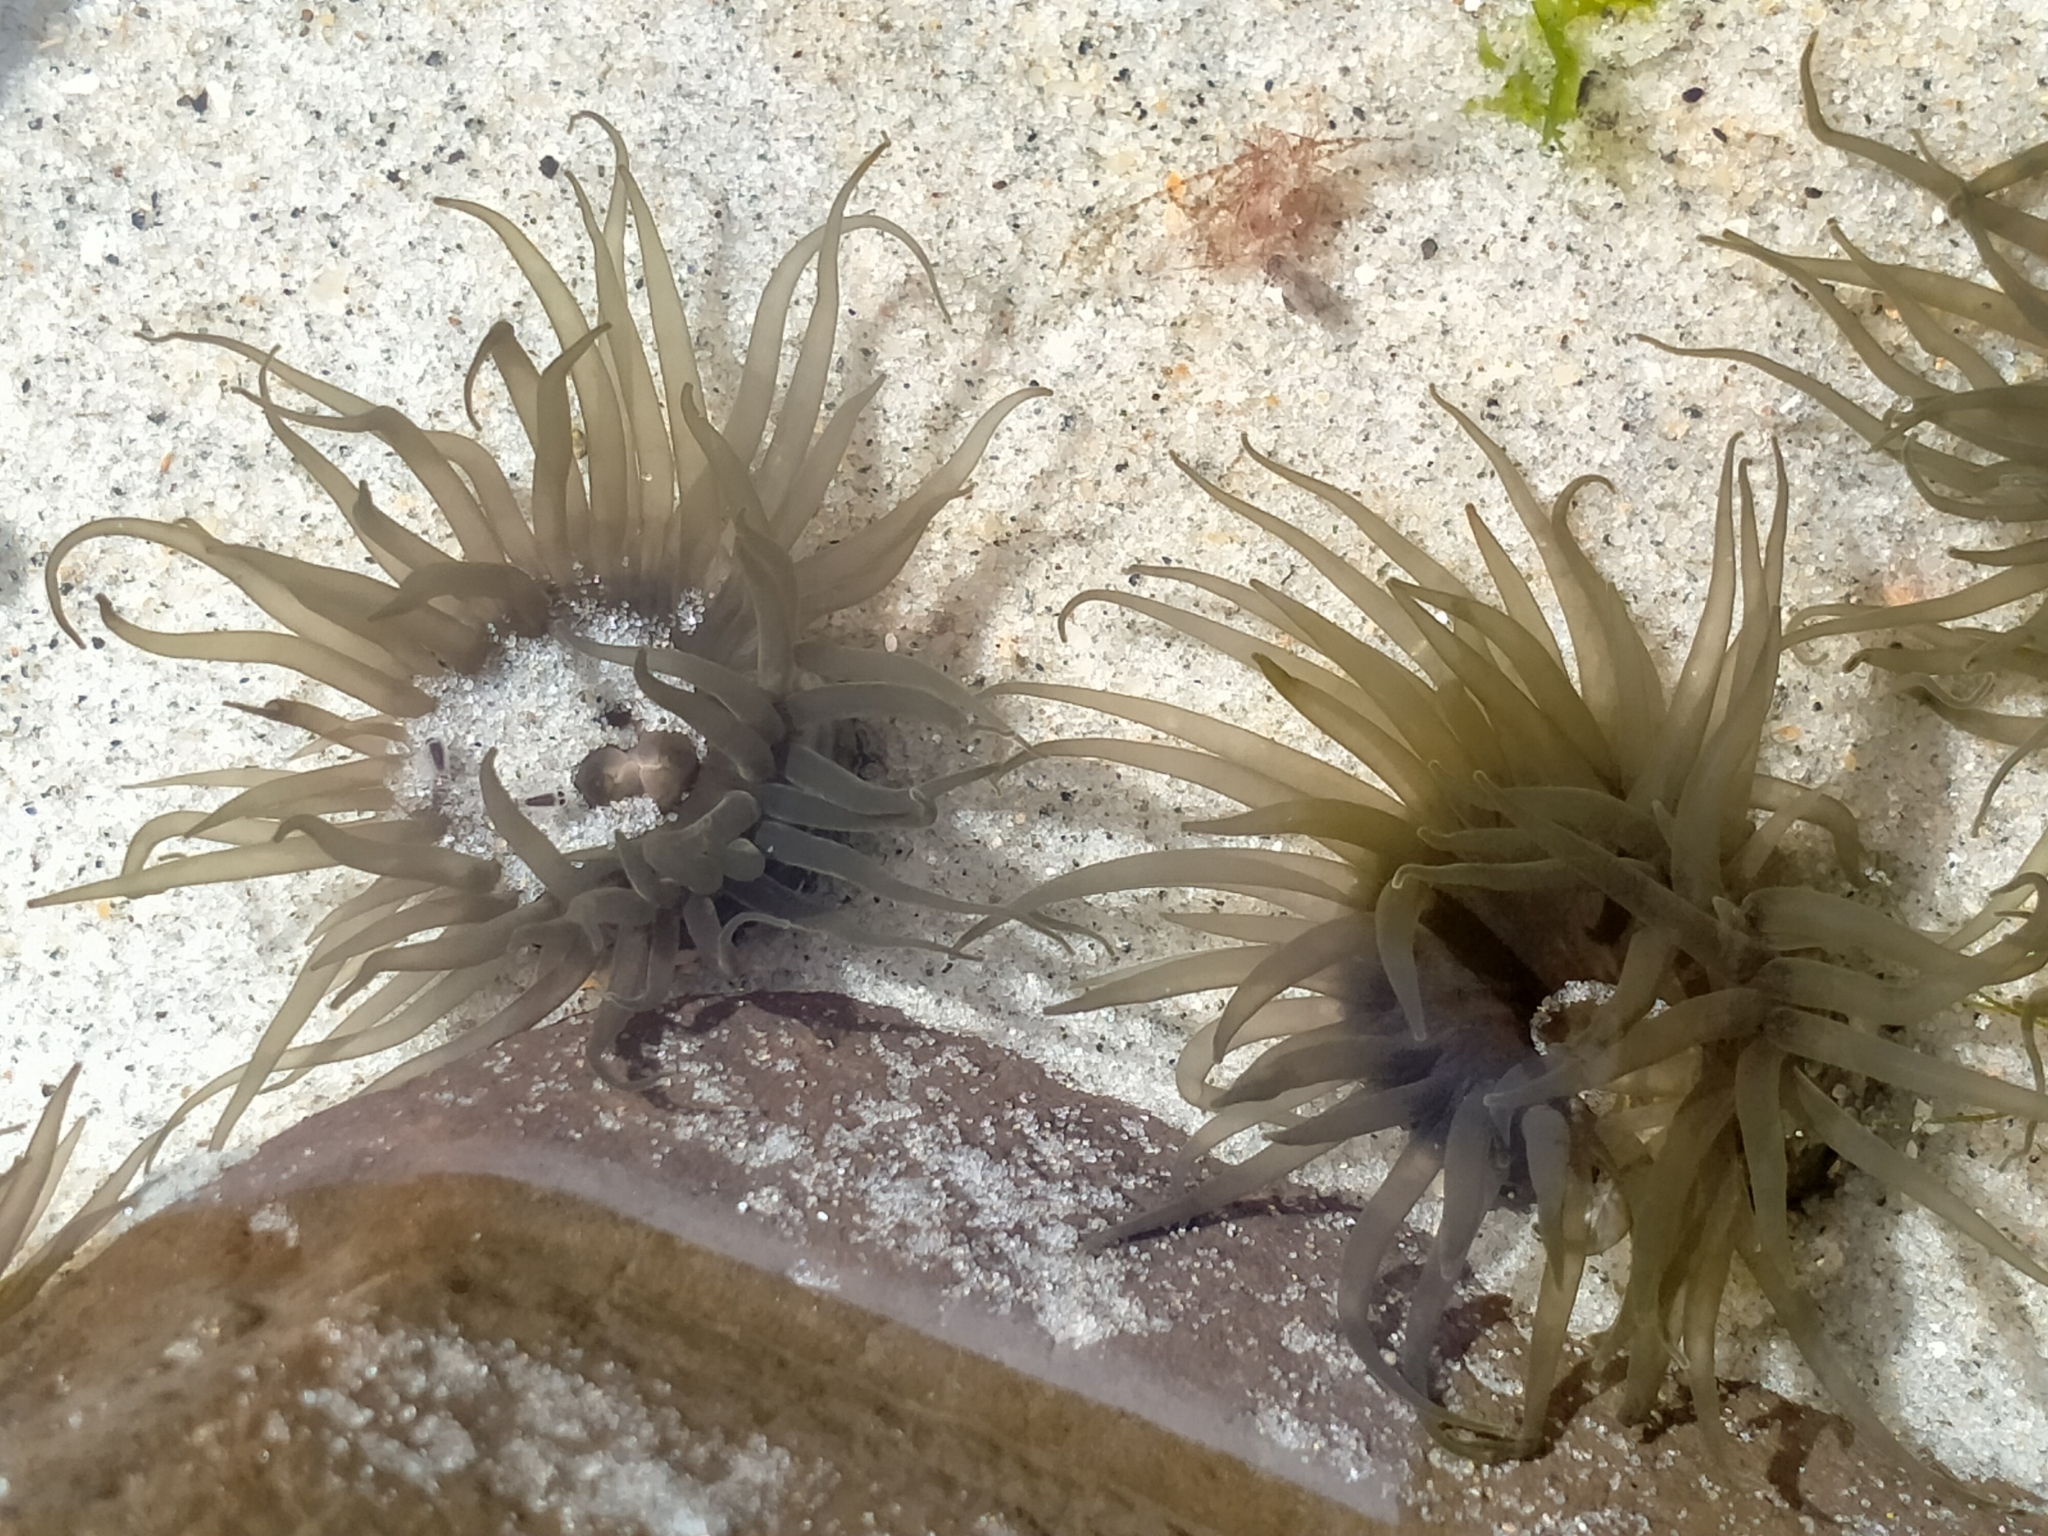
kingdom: Animalia
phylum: Cnidaria
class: Anthozoa
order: Actiniaria
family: Actiniidae
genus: Isactinia
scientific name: Isactinia olivacea
